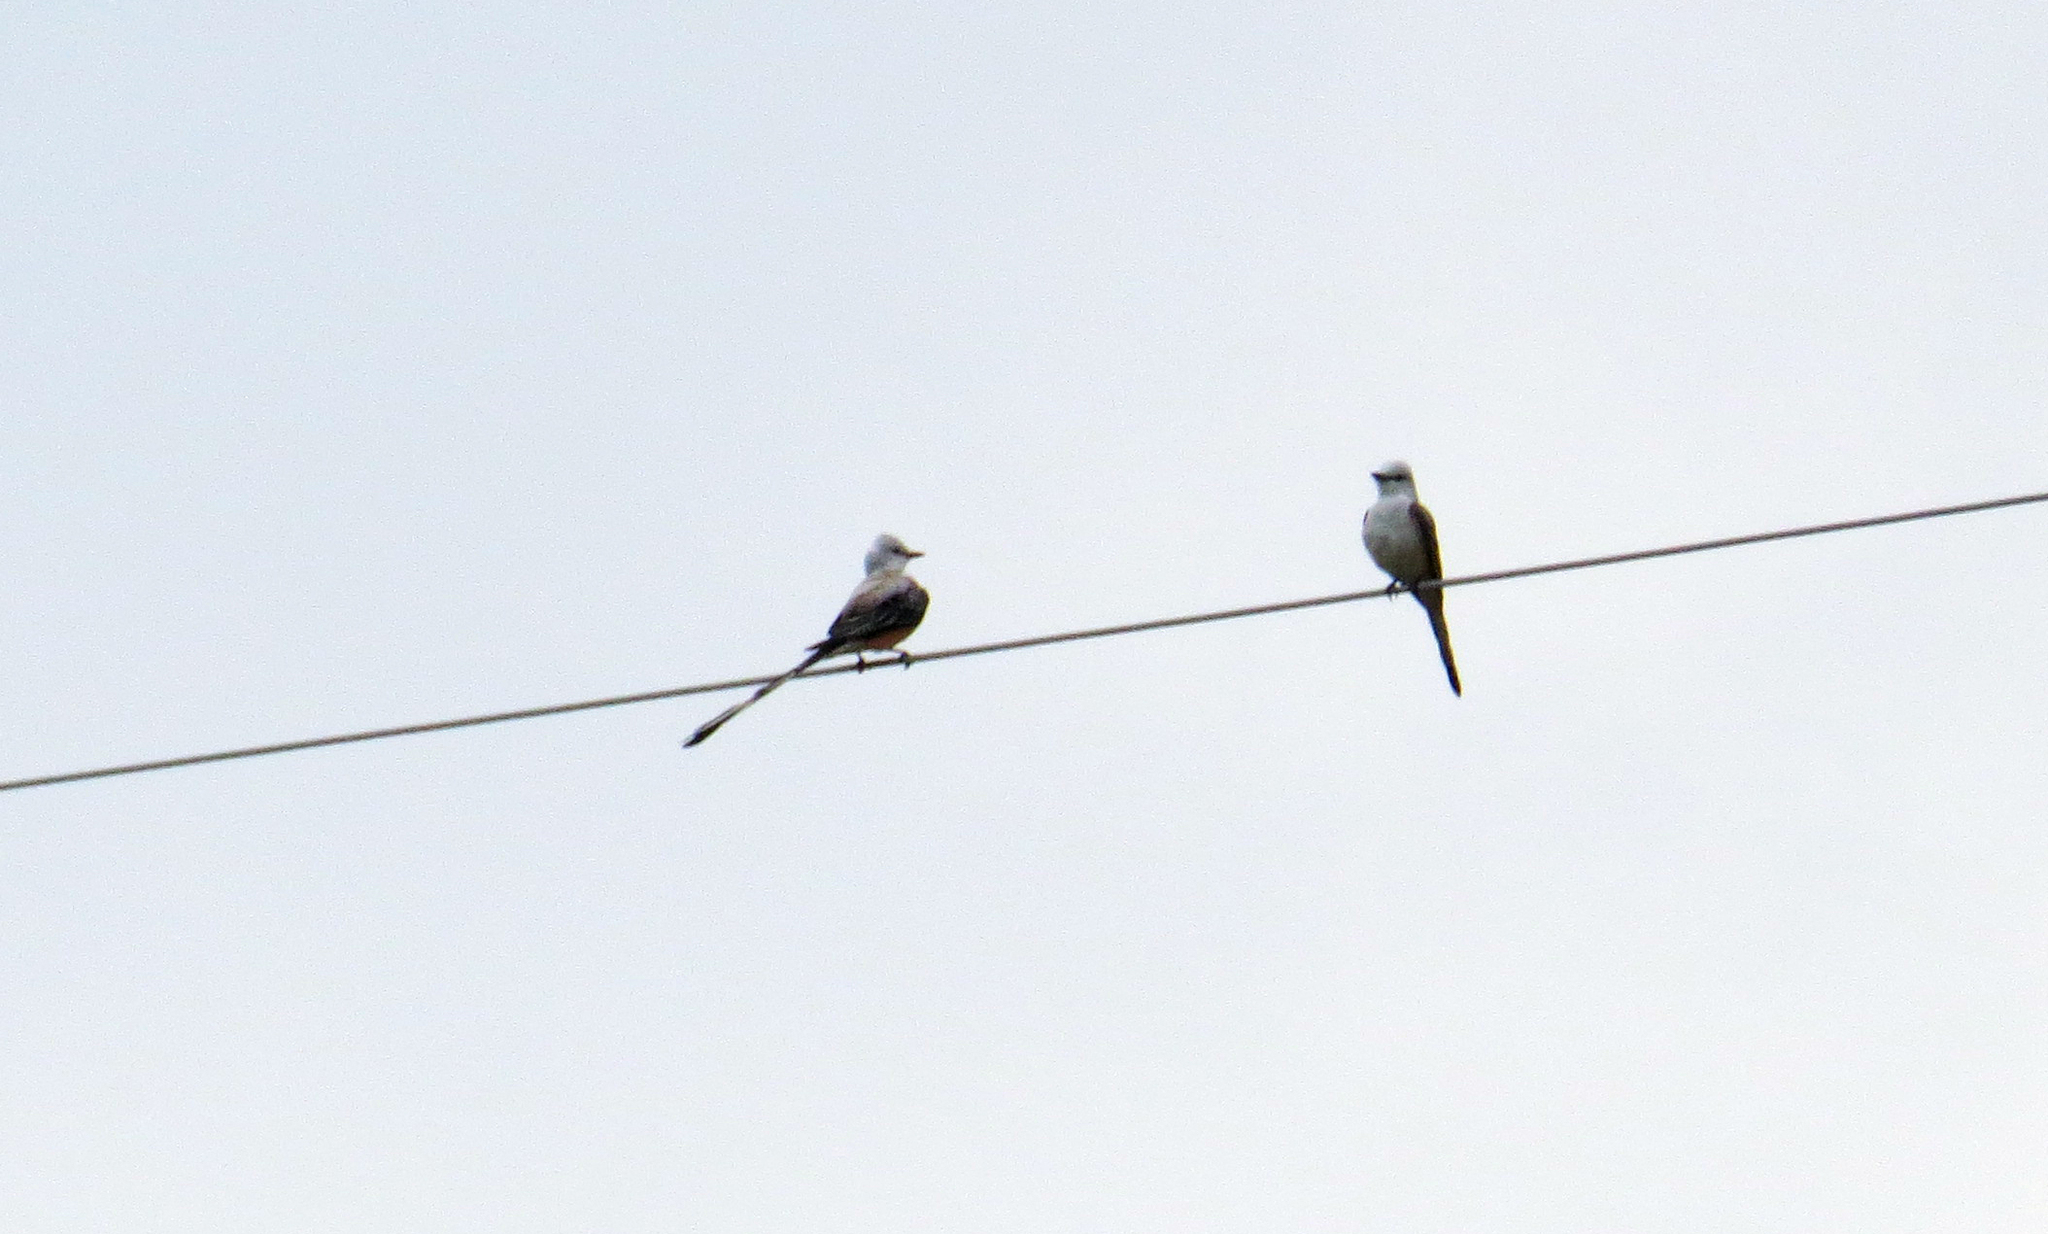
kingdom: Animalia
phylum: Chordata
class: Aves
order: Passeriformes
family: Tyrannidae
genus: Tyrannus
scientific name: Tyrannus forficatus
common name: Scissor-tailed flycatcher
